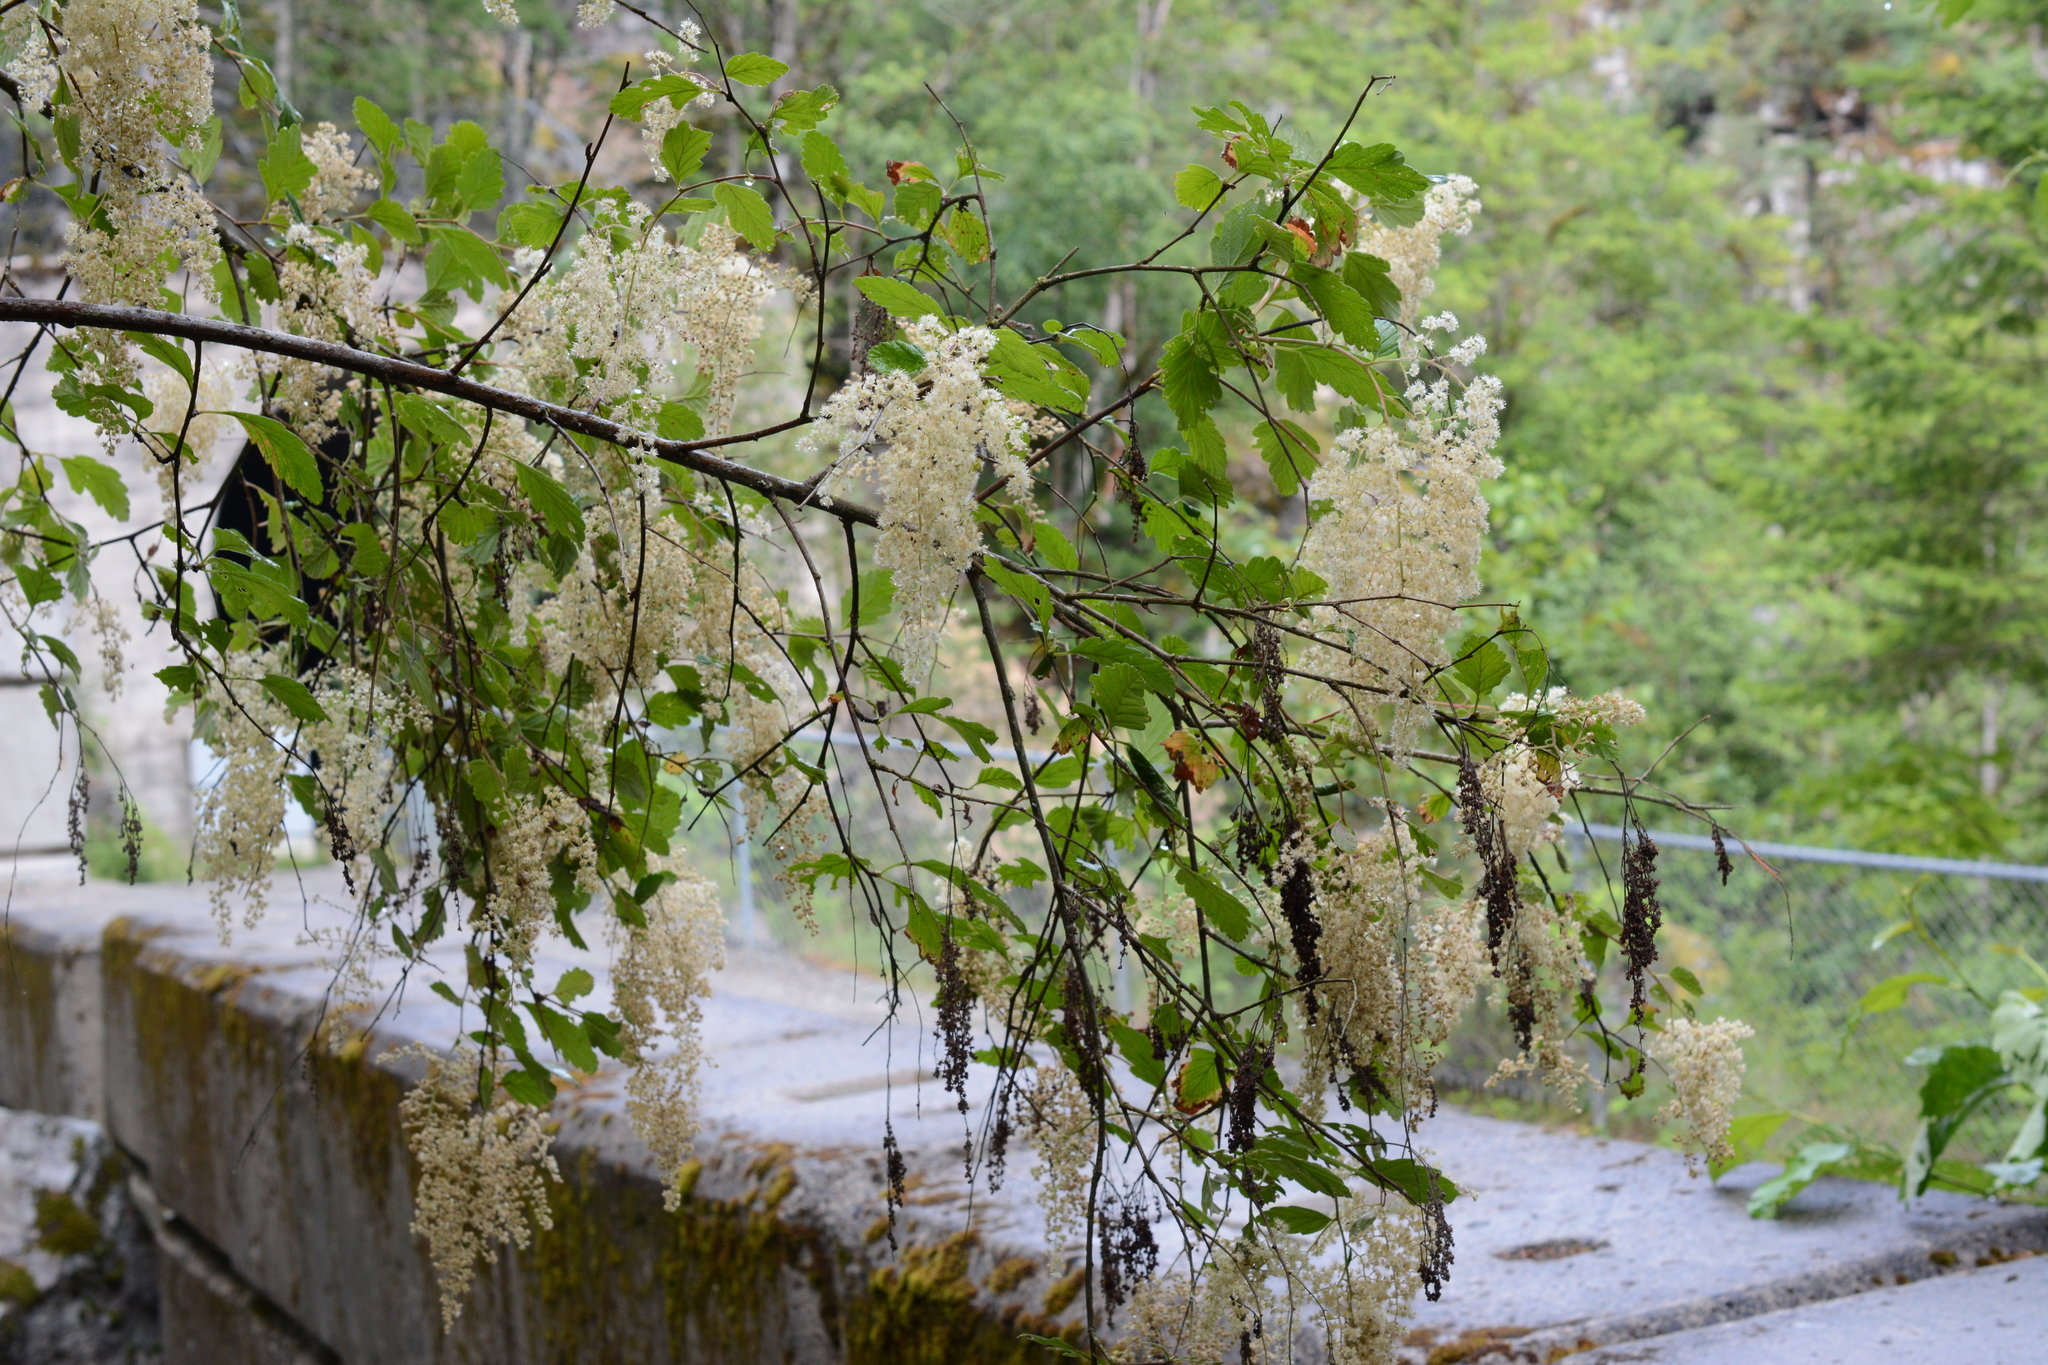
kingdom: Plantae
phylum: Tracheophyta
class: Magnoliopsida
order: Rosales
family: Rosaceae
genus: Holodiscus
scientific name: Holodiscus discolor
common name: Oceanspray
